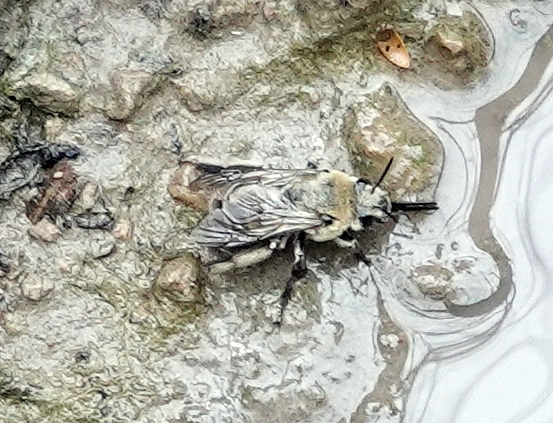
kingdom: Animalia
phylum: Arthropoda
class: Insecta
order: Hymenoptera
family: Apidae
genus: Anthophora
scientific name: Anthophora occidentalis
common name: Digger bee
